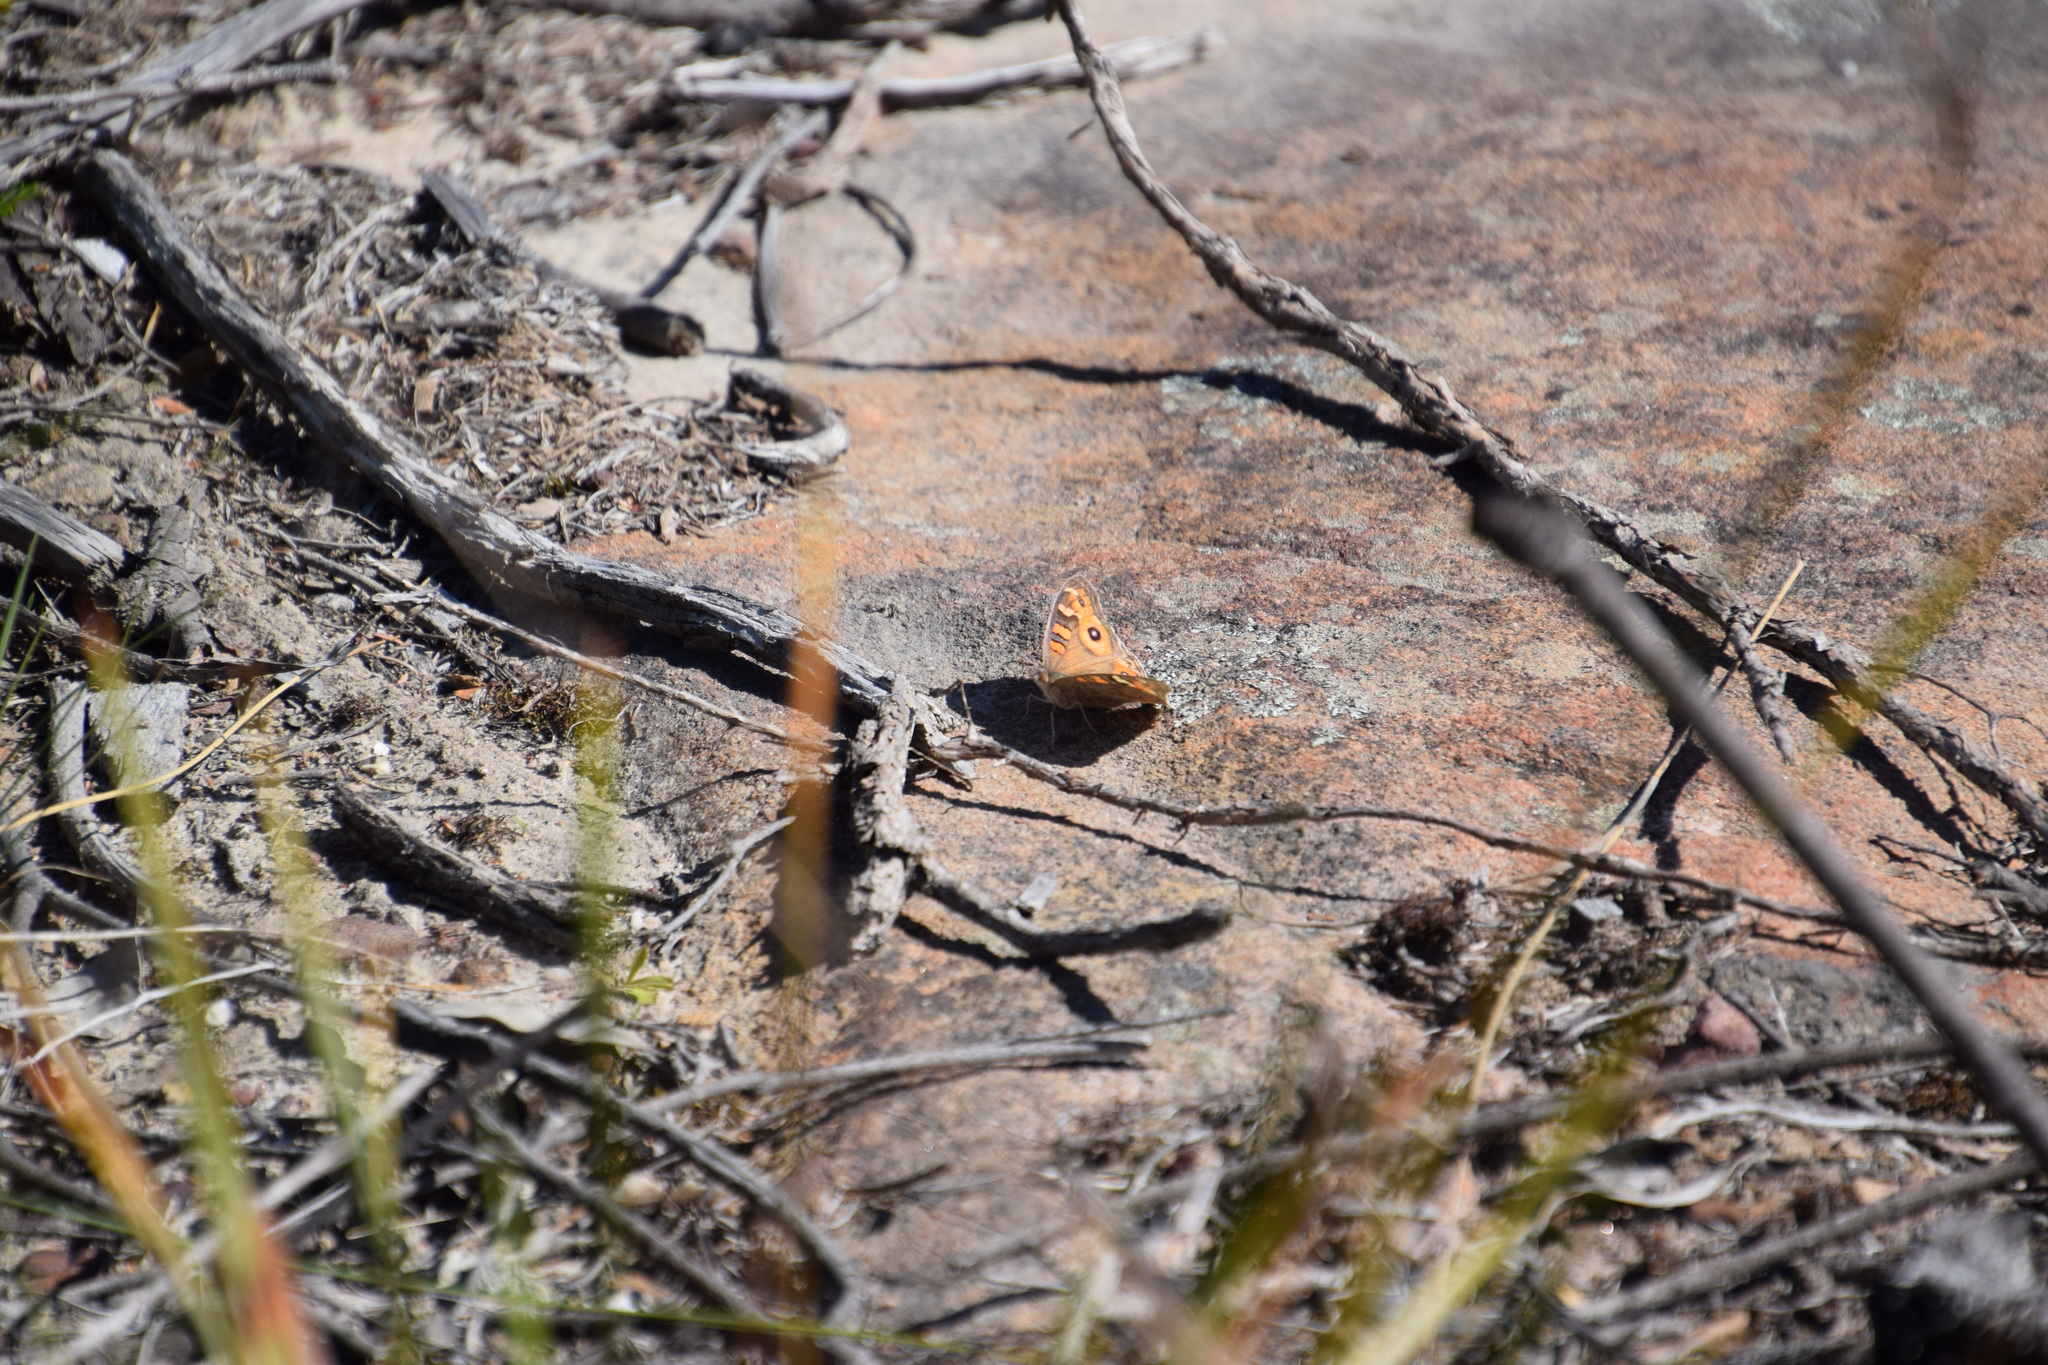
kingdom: Animalia
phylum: Arthropoda
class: Insecta
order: Lepidoptera
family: Nymphalidae
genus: Junonia
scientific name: Junonia villida
